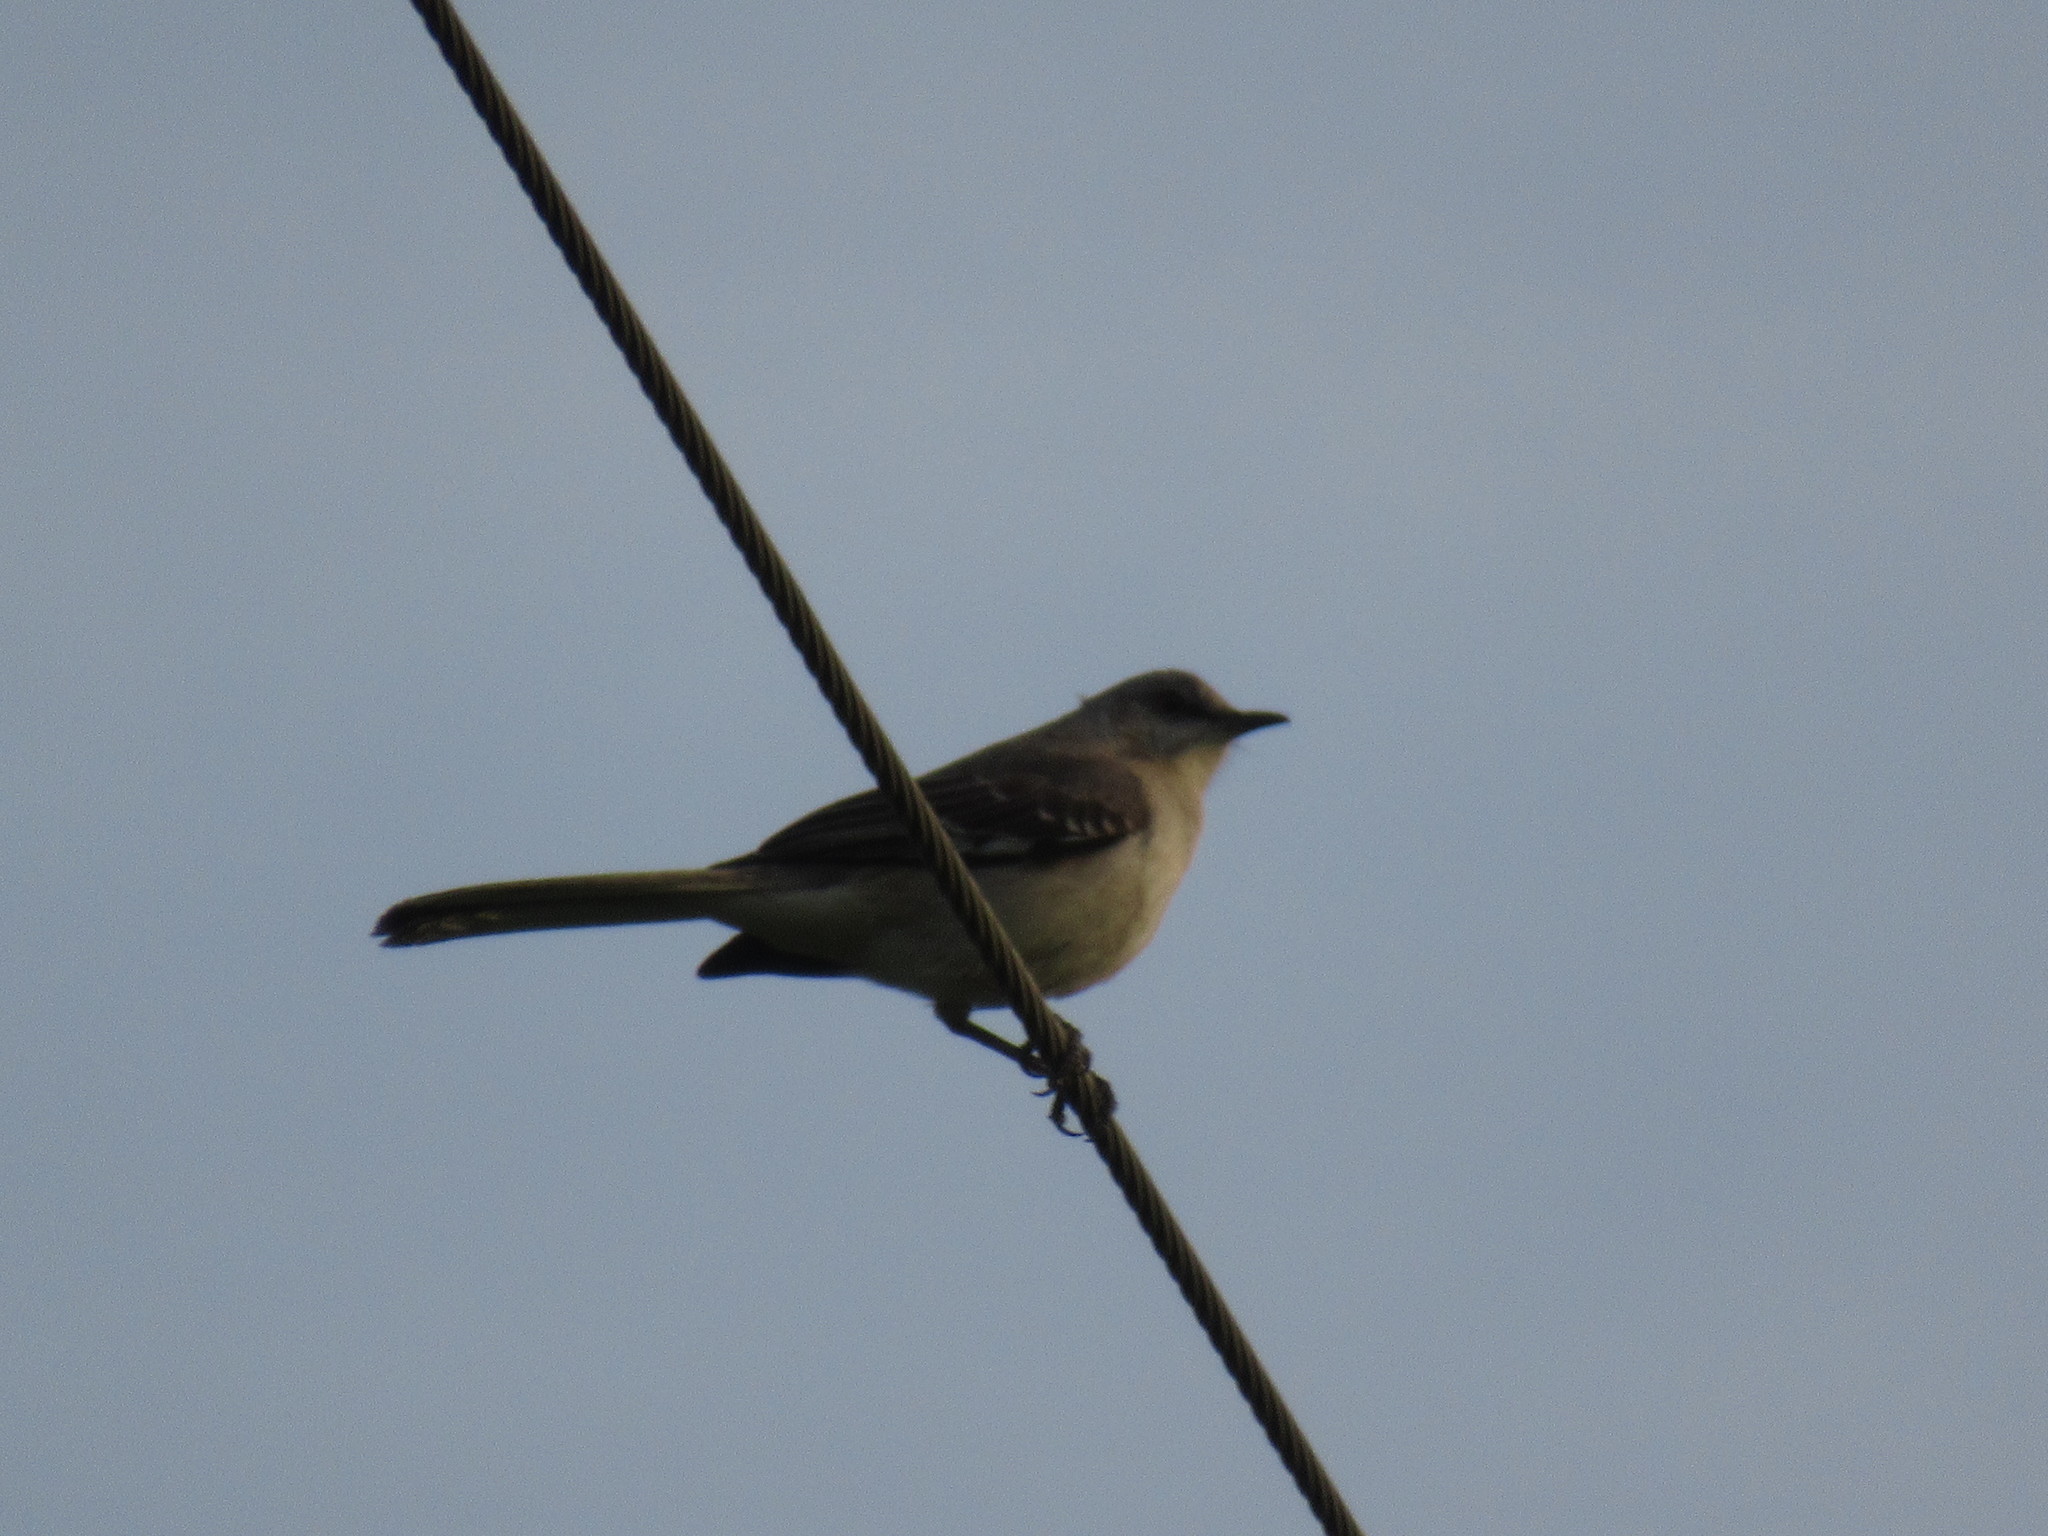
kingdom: Animalia
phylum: Chordata
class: Aves
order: Passeriformes
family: Mimidae
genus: Mimus
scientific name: Mimus polyglottos
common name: Northern mockingbird
